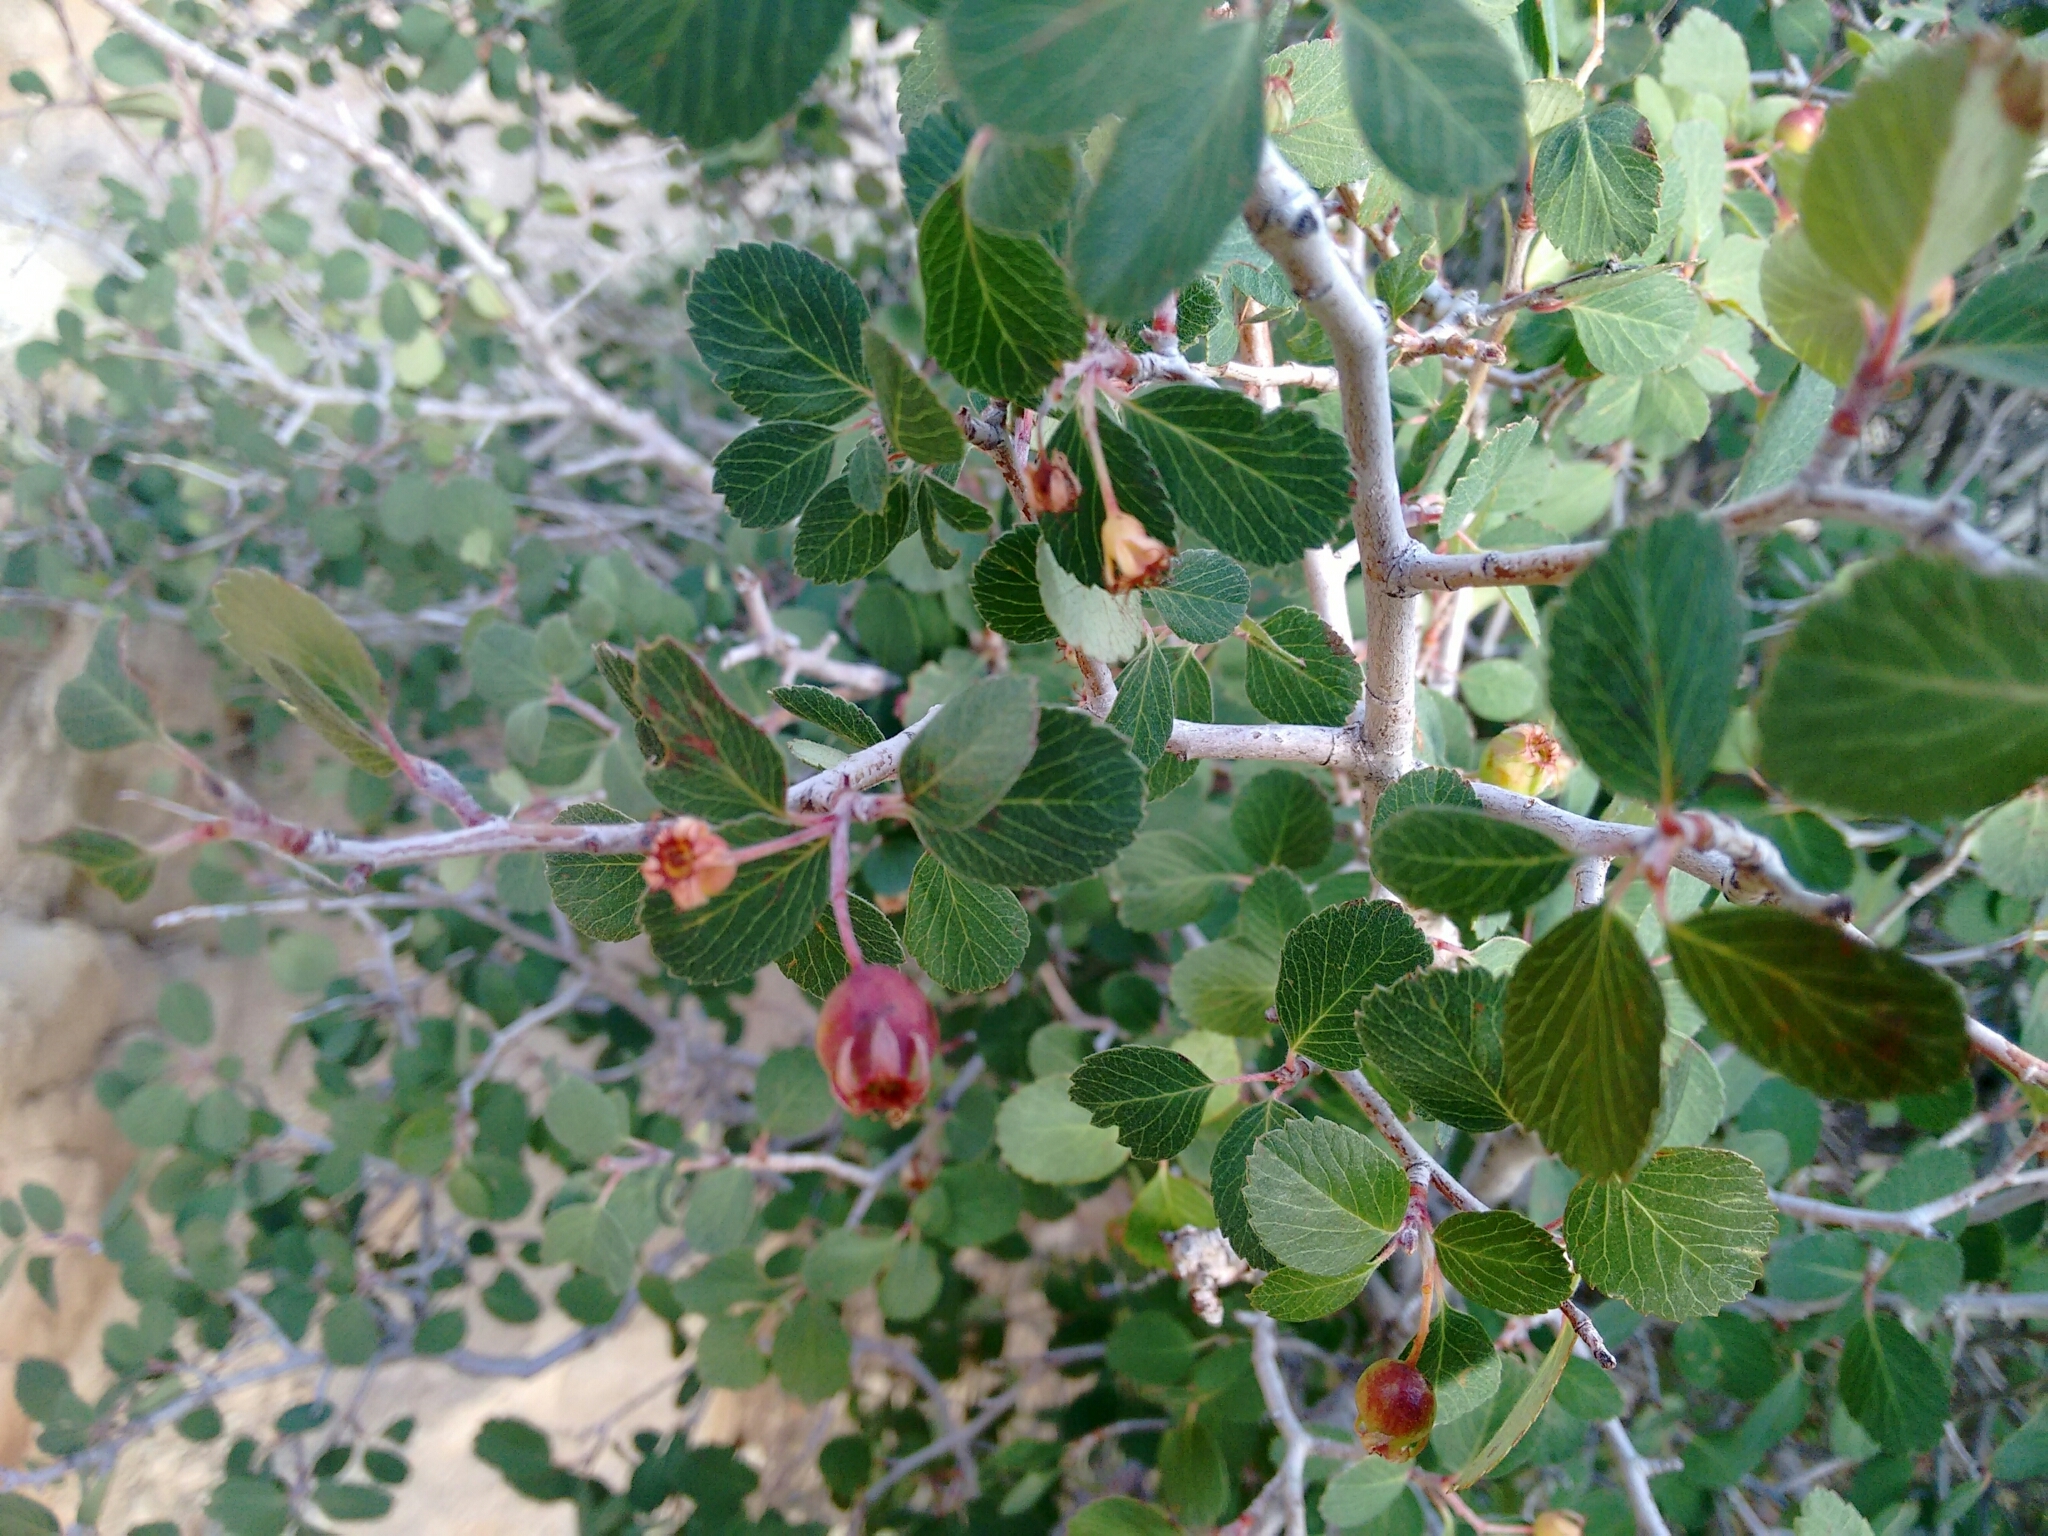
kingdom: Plantae
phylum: Tracheophyta
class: Magnoliopsida
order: Rosales
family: Rosaceae
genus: Amelanchier
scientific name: Amelanchier utahensis
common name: Utah serviceberry
